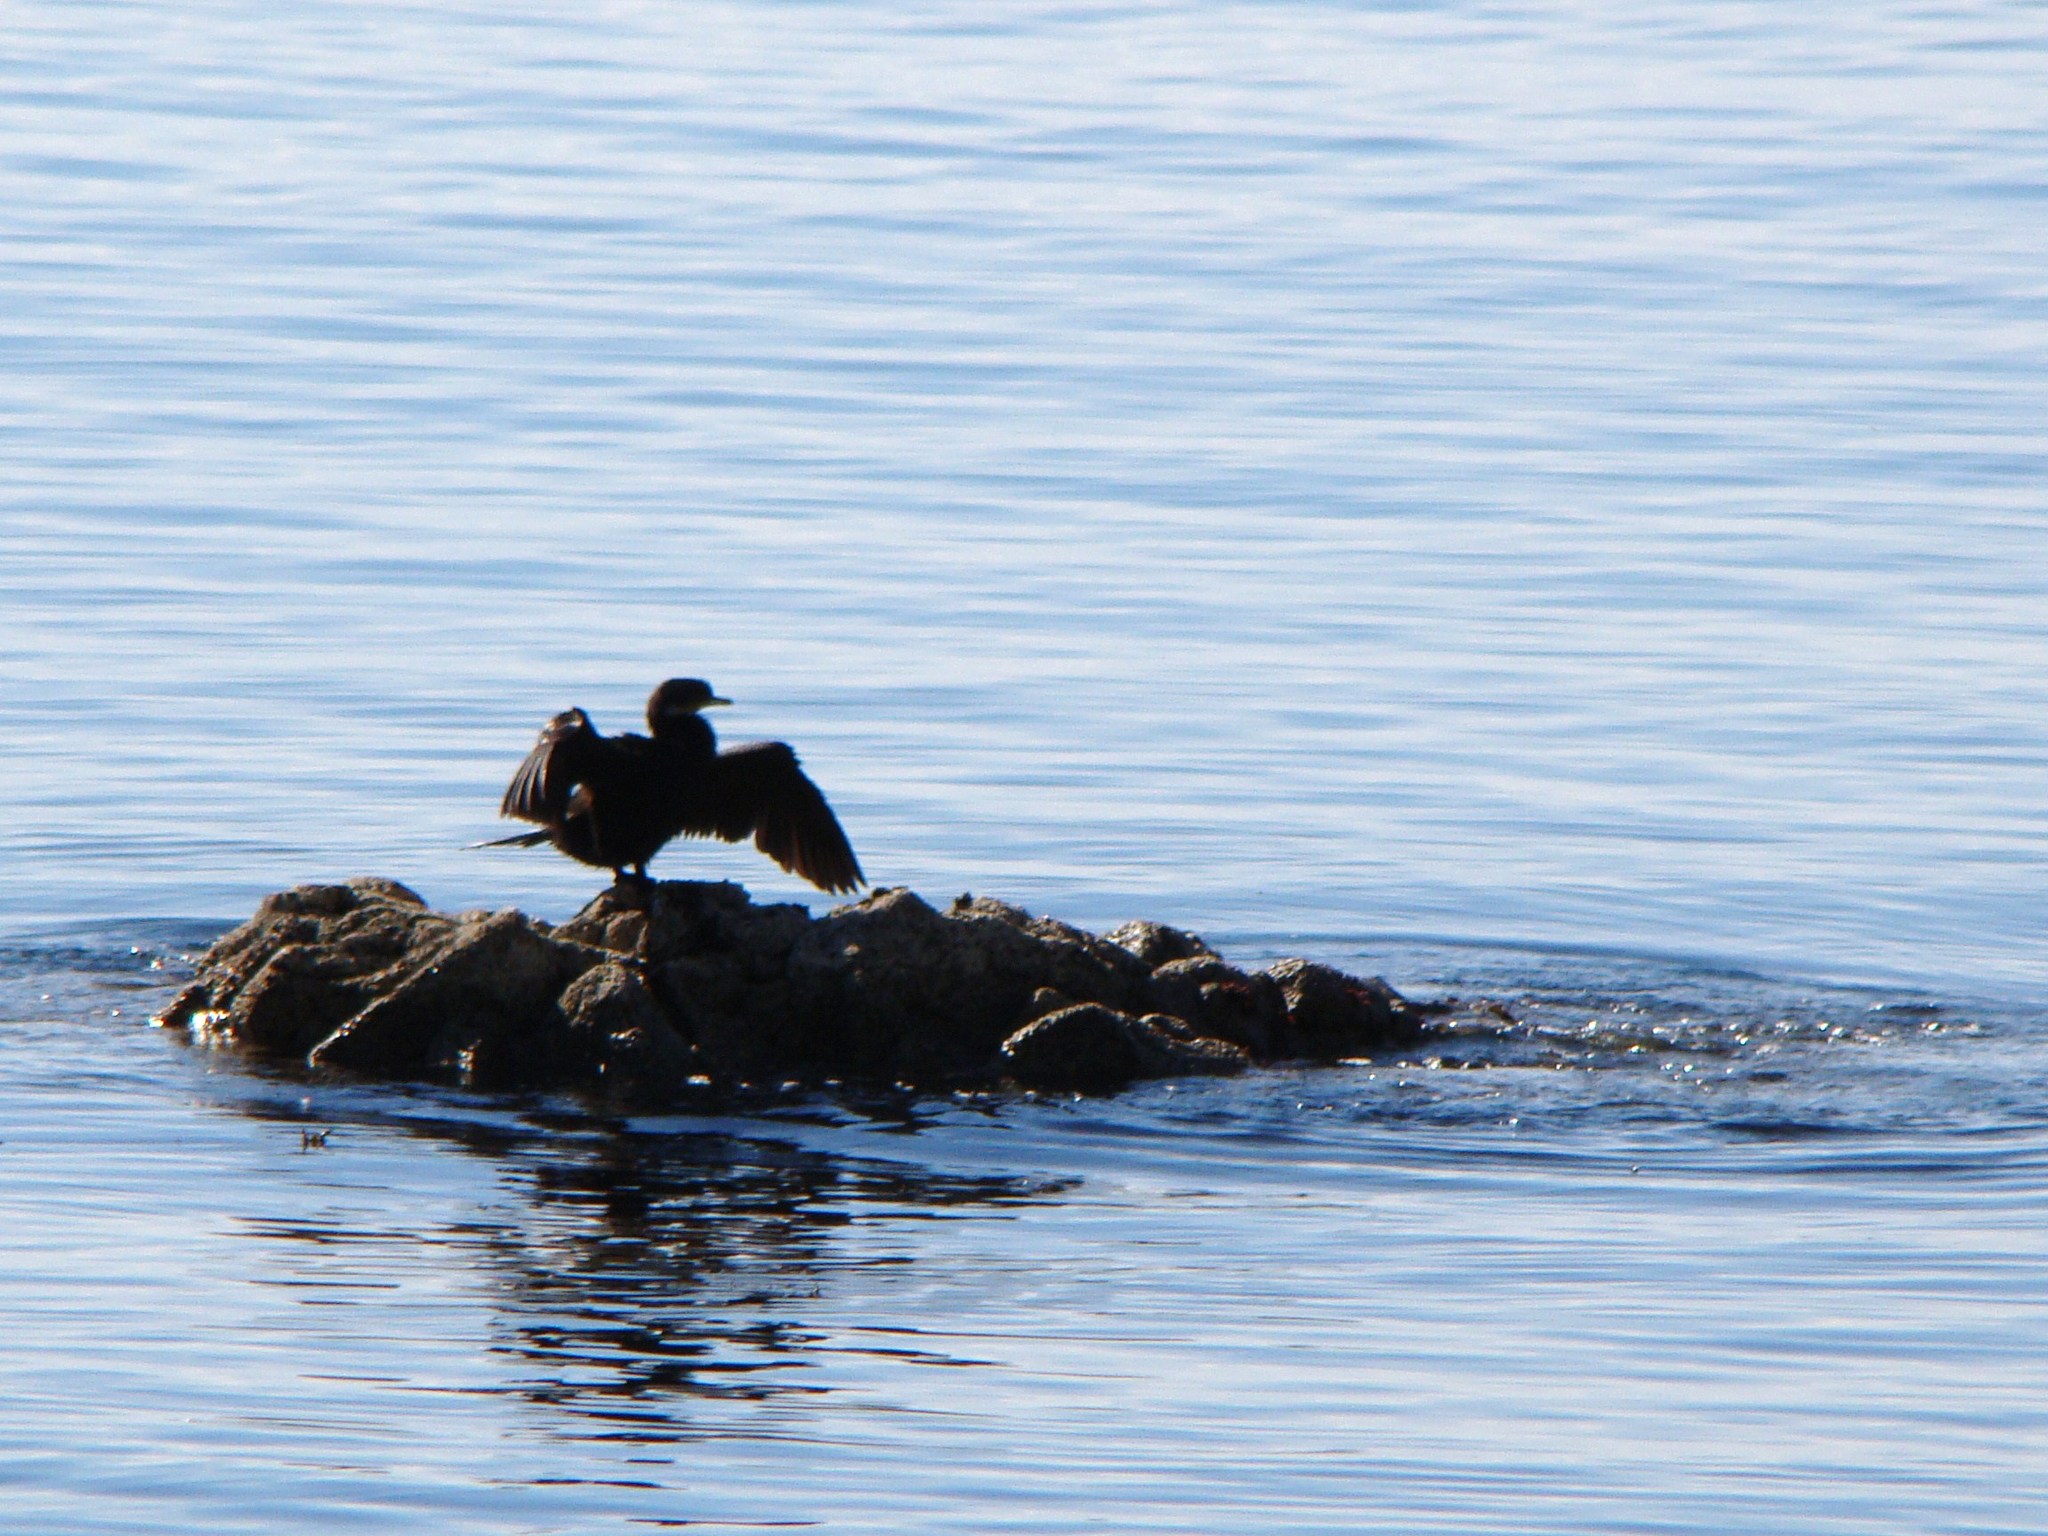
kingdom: Animalia
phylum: Chordata
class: Aves
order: Suliformes
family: Phalacrocoracidae
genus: Microcarbo
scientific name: Microcarbo melanoleucos
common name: Little pied cormorant
